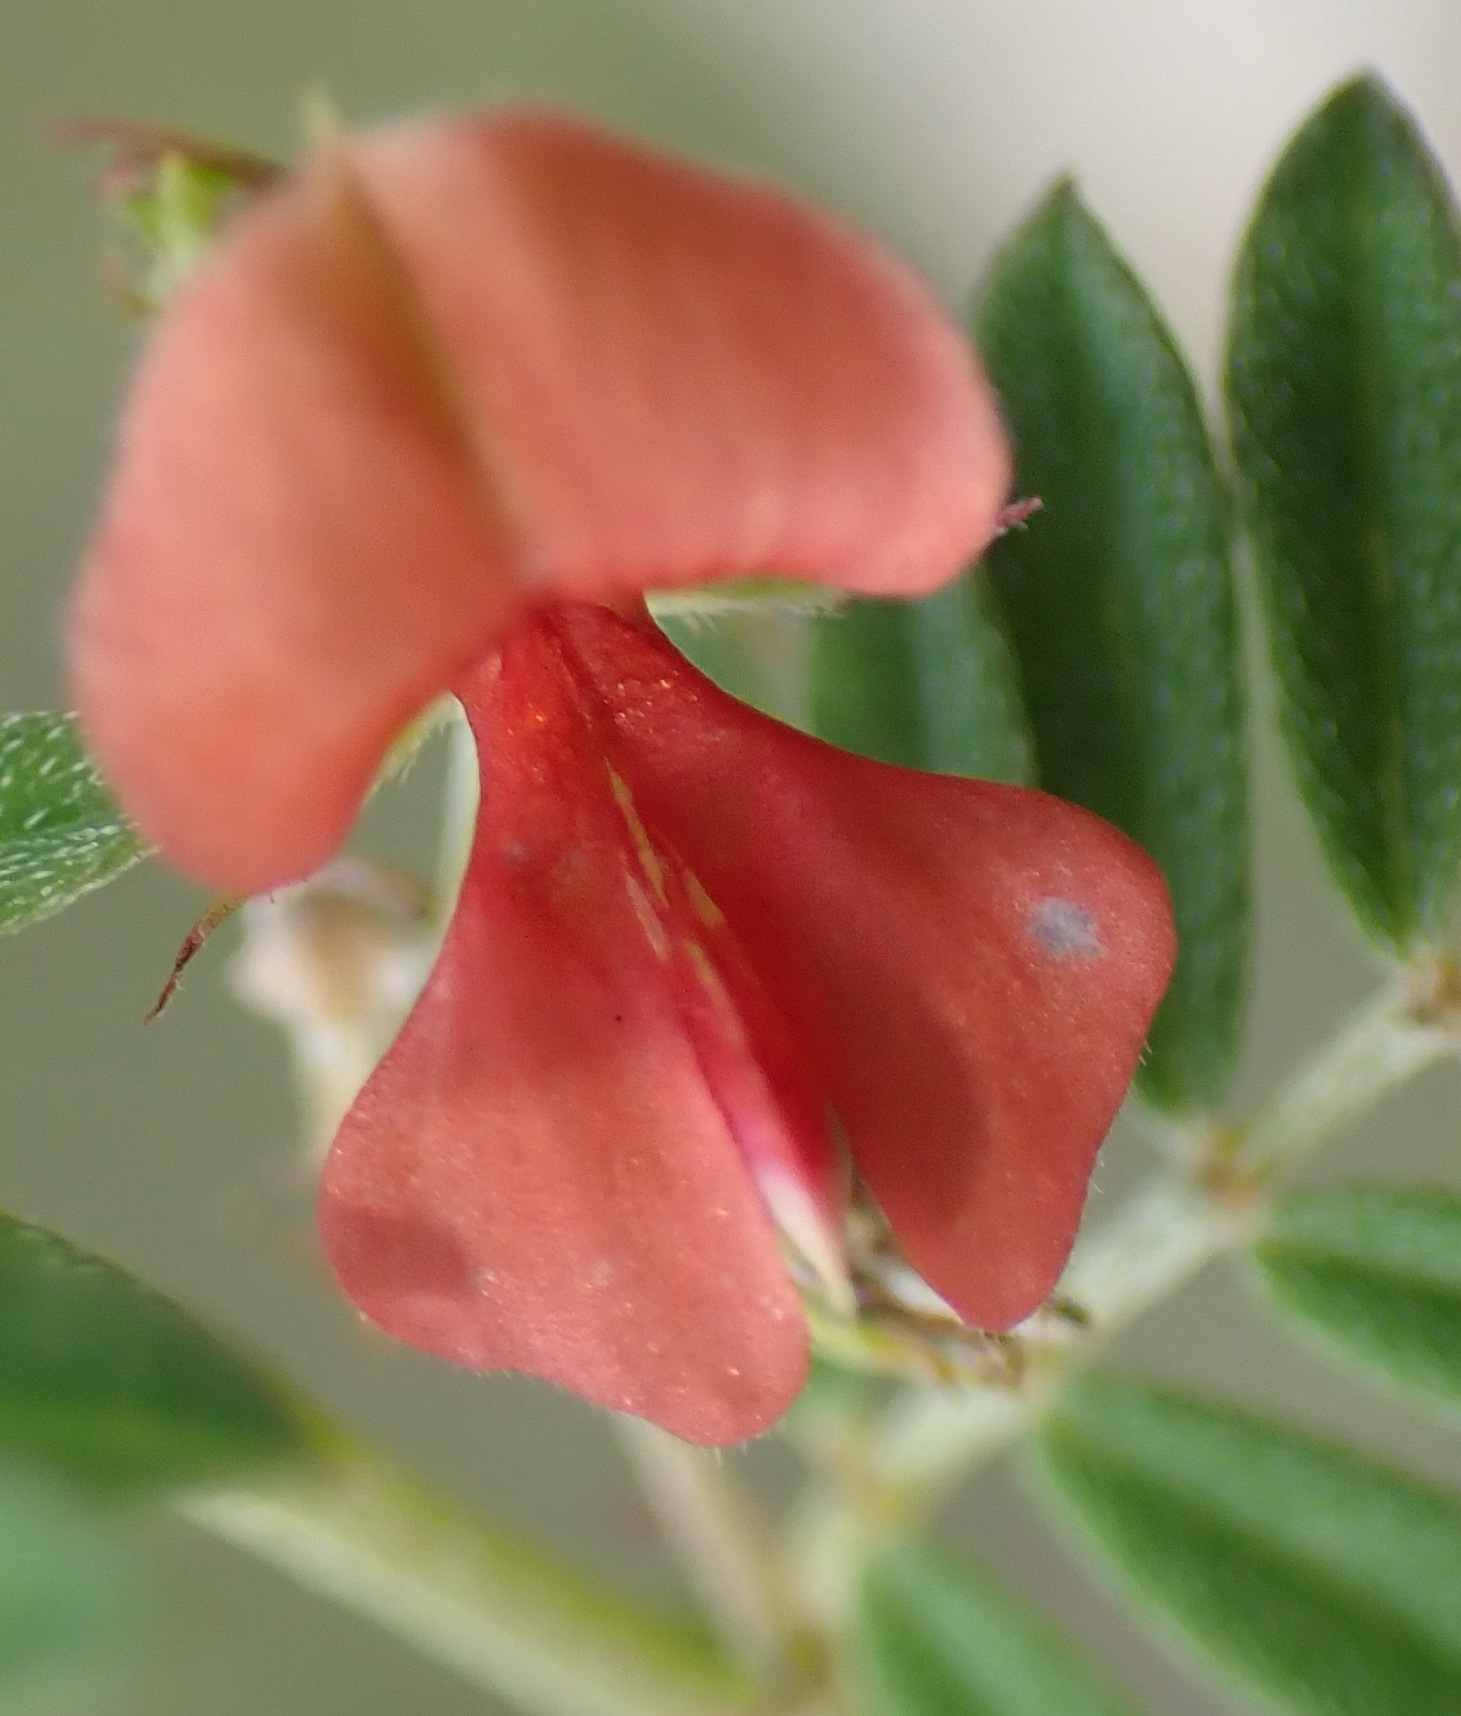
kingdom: Plantae
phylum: Tracheophyta
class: Magnoliopsida
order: Fabales
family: Fabaceae
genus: Indigofera
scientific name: Indigofera poliotes
